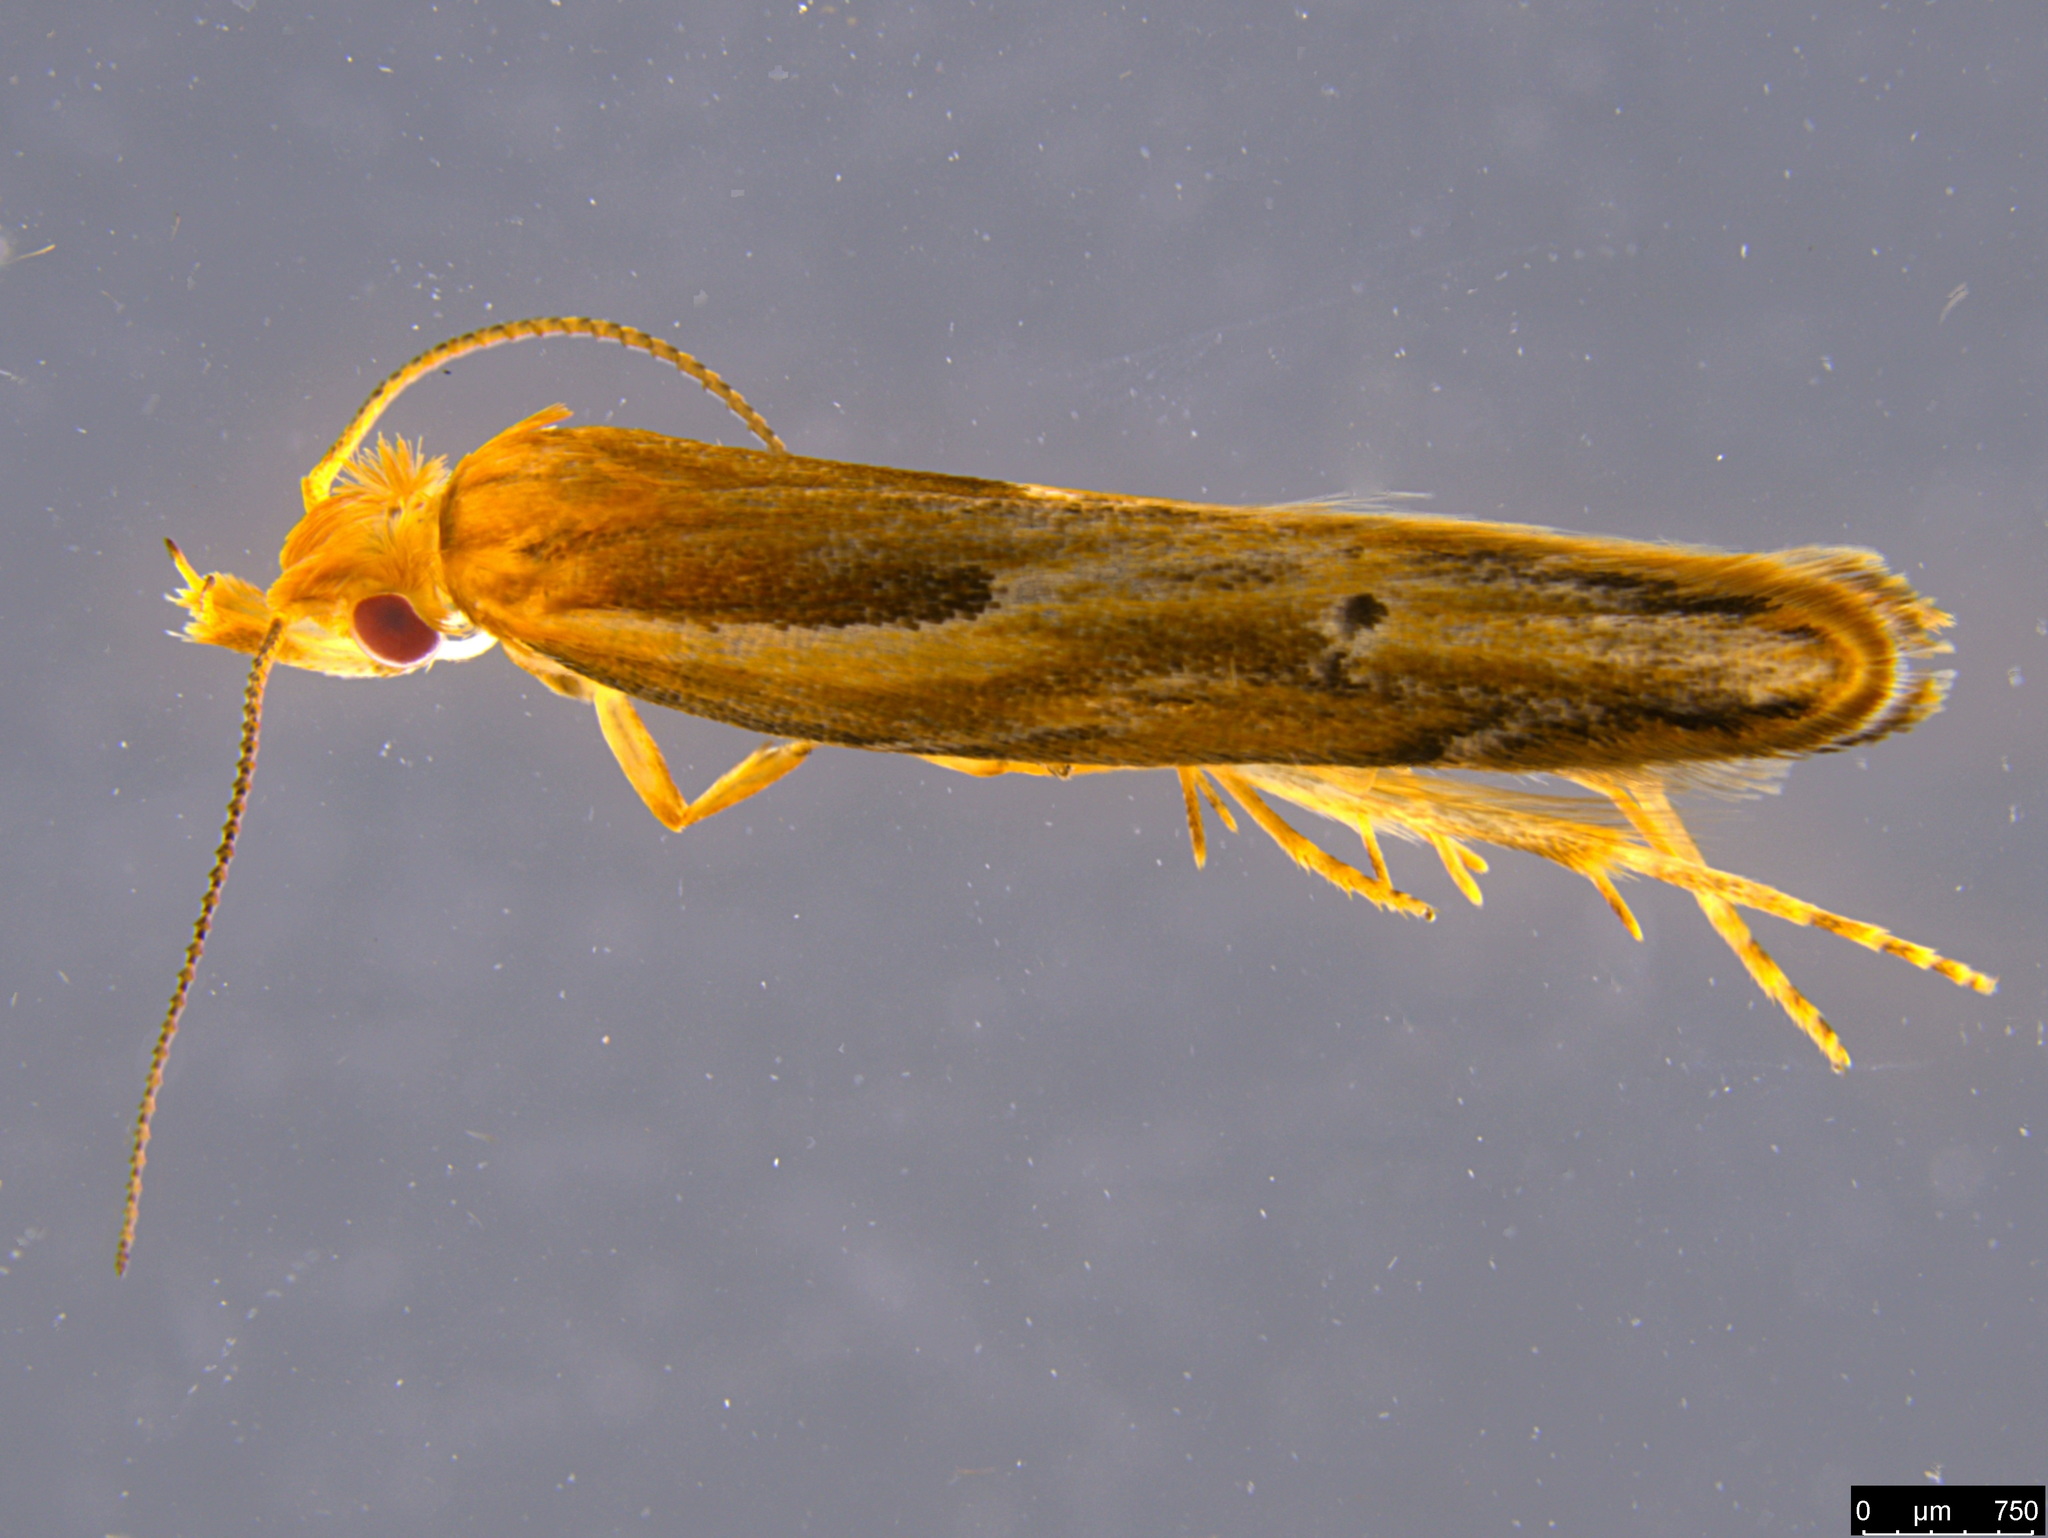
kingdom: Animalia
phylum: Arthropoda
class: Insecta
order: Lepidoptera
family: Depressariidae
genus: Eutorna
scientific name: Eutorna tricasis
